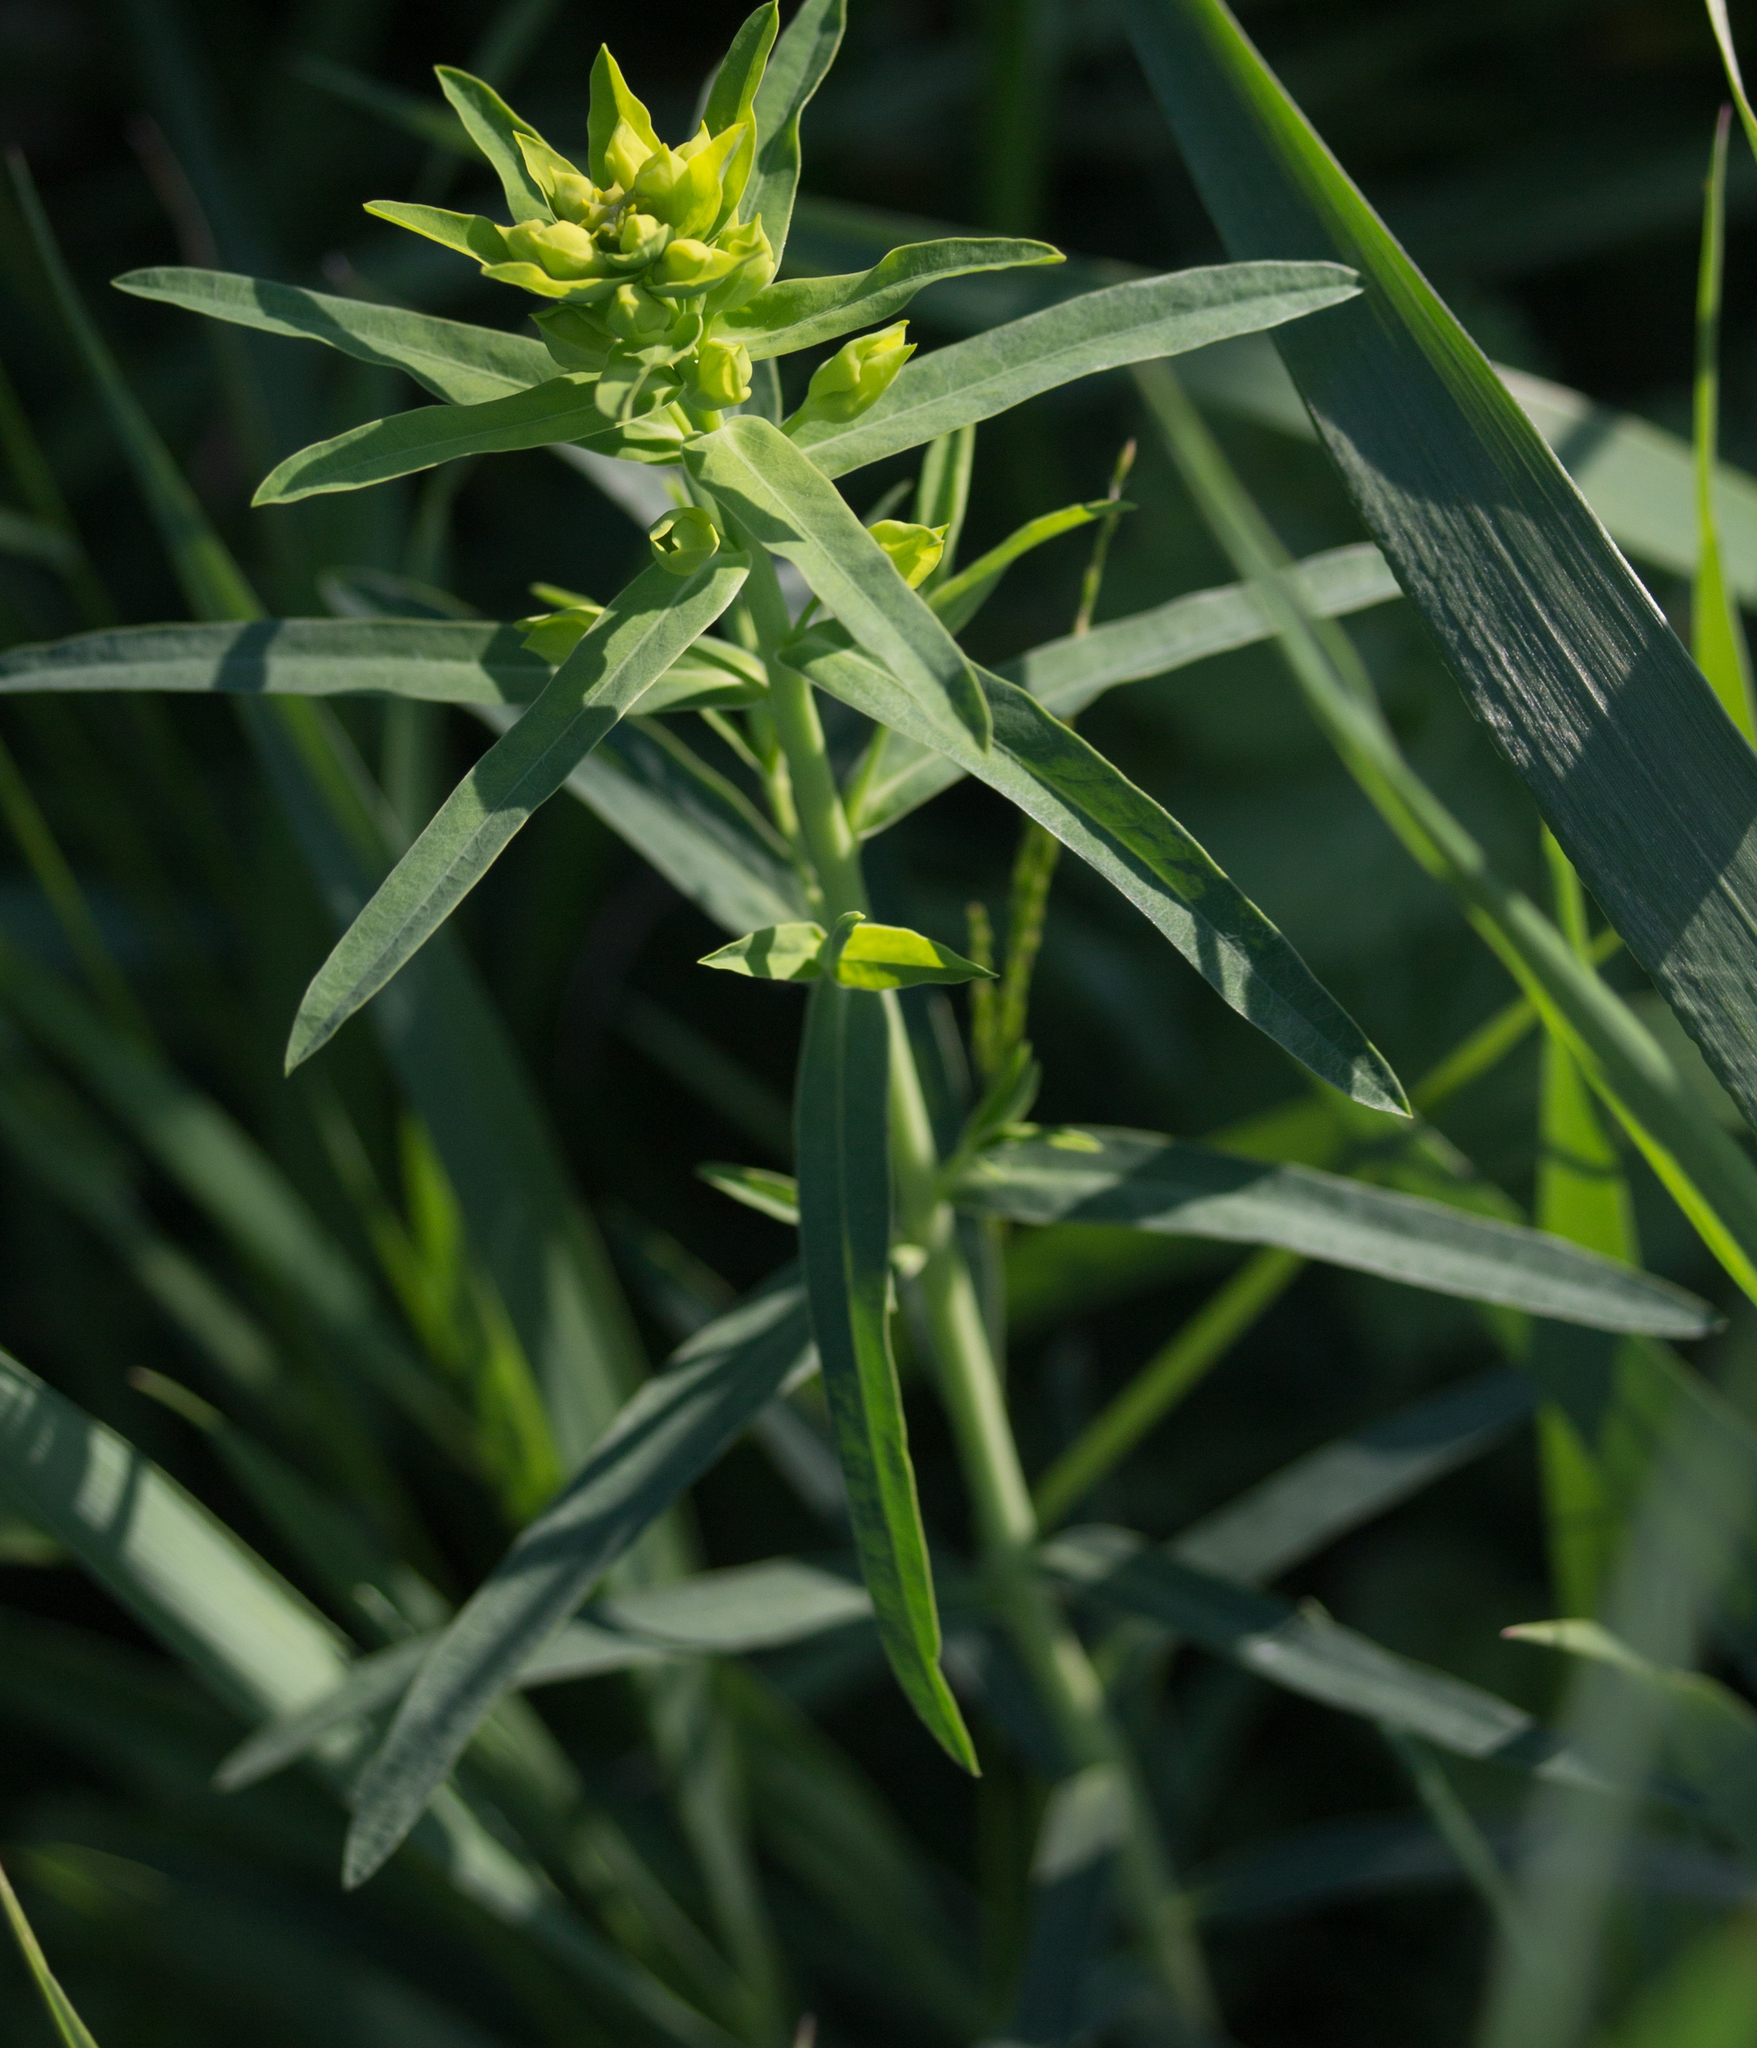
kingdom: Plantae
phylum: Tracheophyta
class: Magnoliopsida
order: Malpighiales
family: Euphorbiaceae
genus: Euphorbia
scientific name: Euphorbia virgata
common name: Leafy spurge
